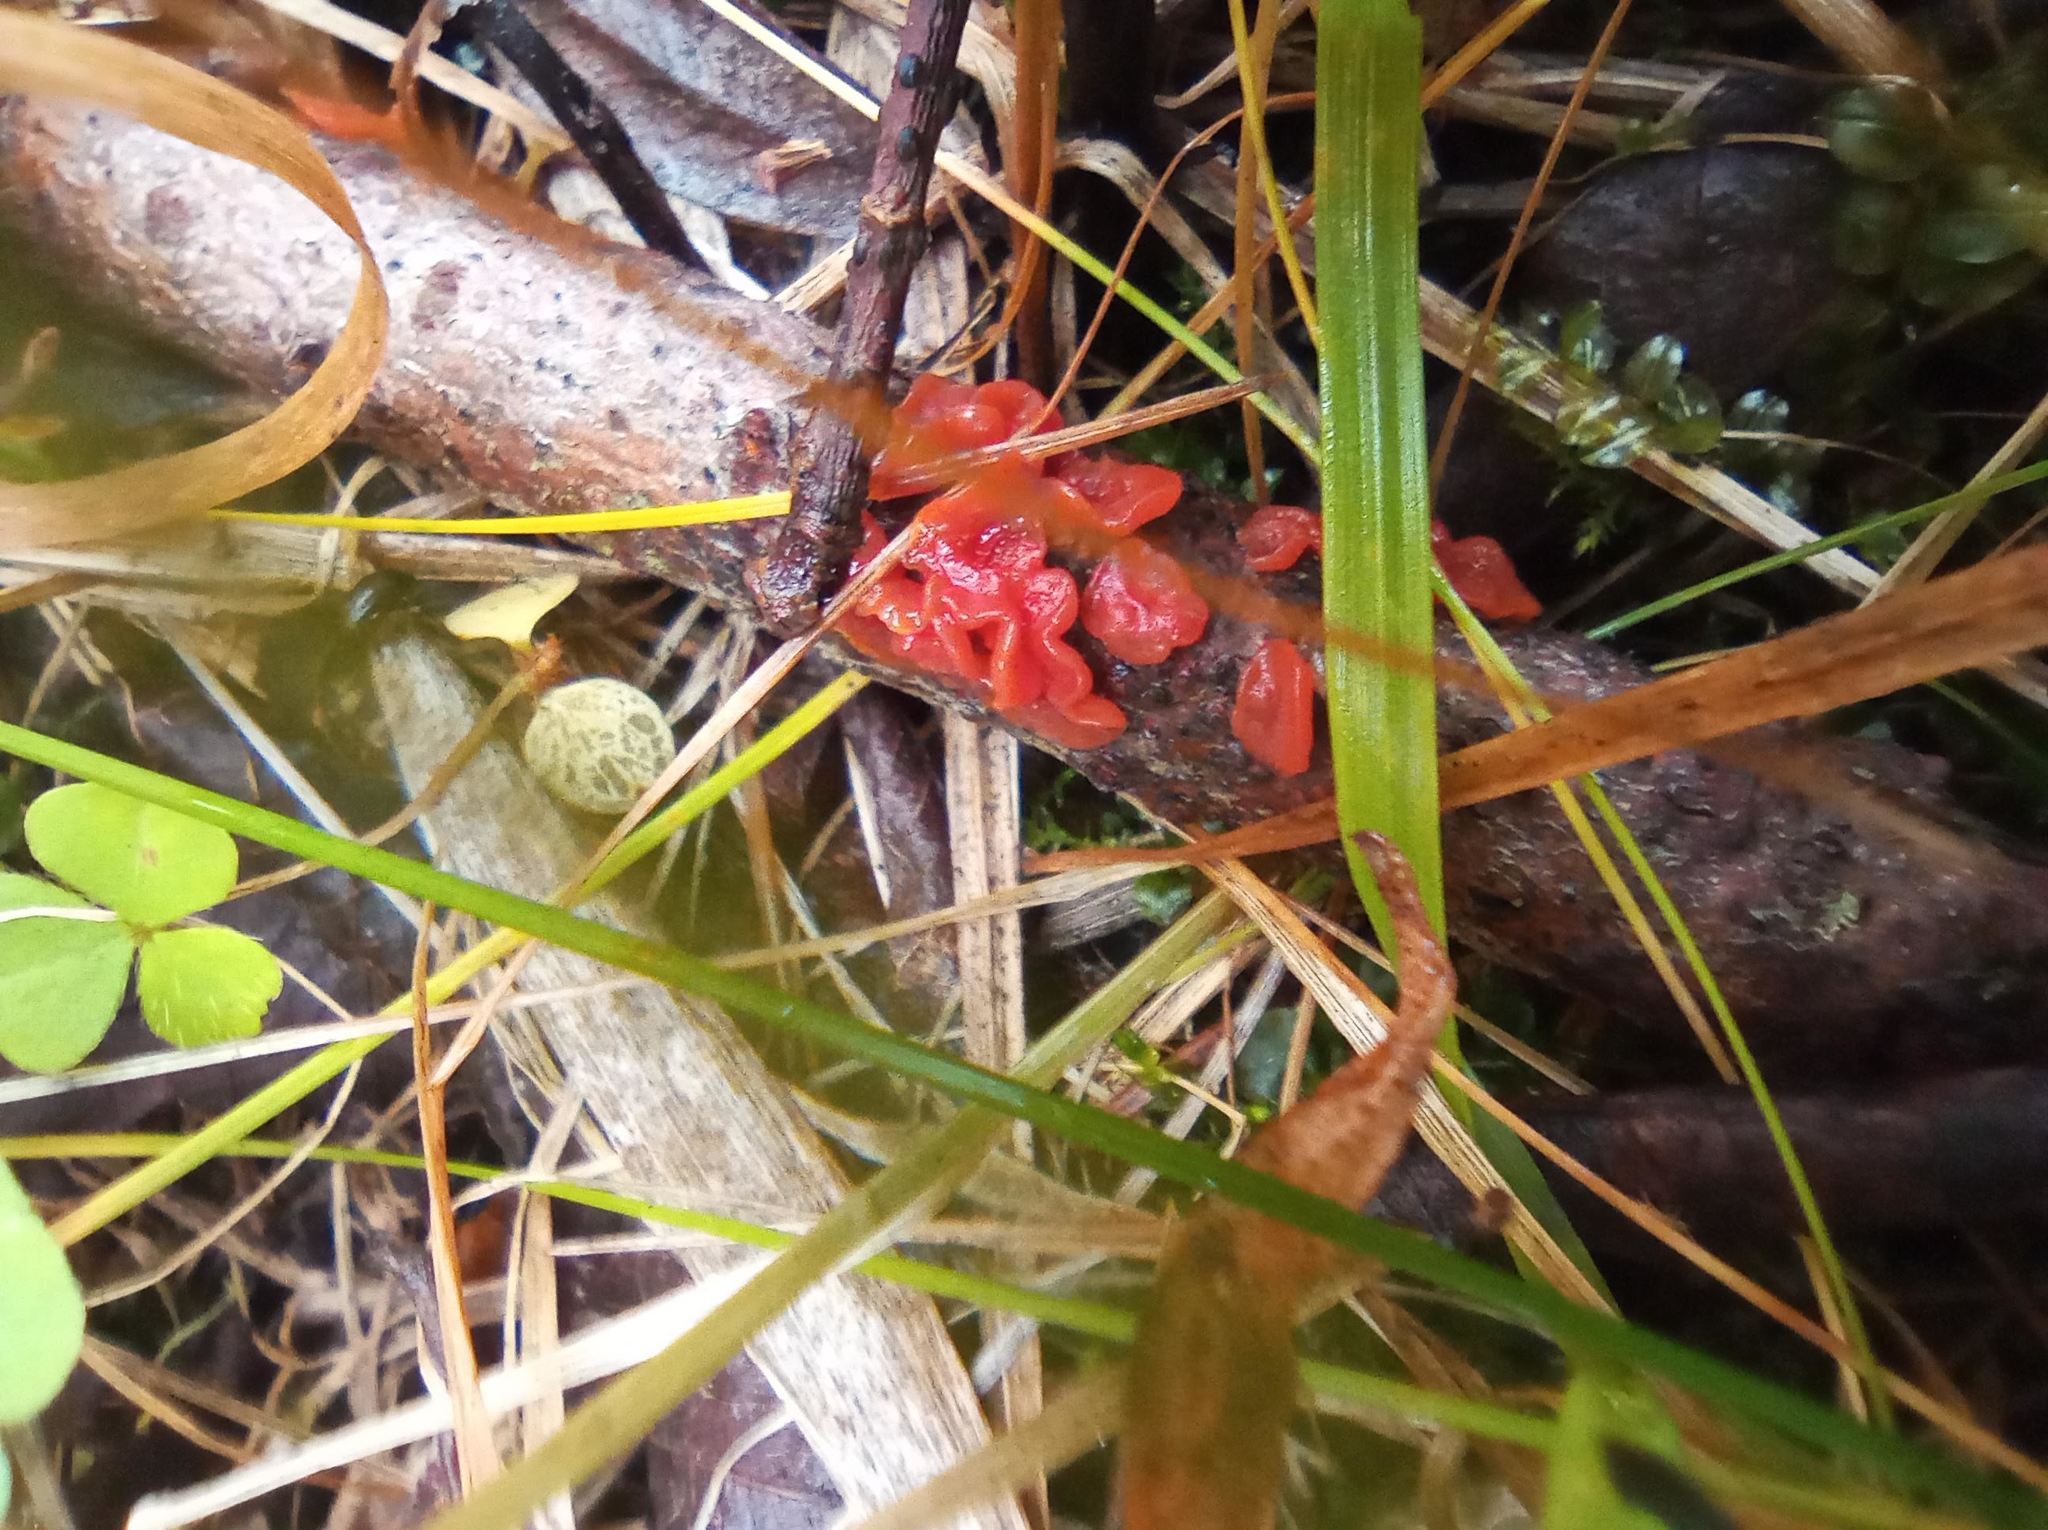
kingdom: Fungi
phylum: Basidiomycota
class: Agaricomycetes
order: Corticiales
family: Vuilleminiaceae
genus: Cytidia
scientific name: Cytidia salicina
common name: Scarlet splash
